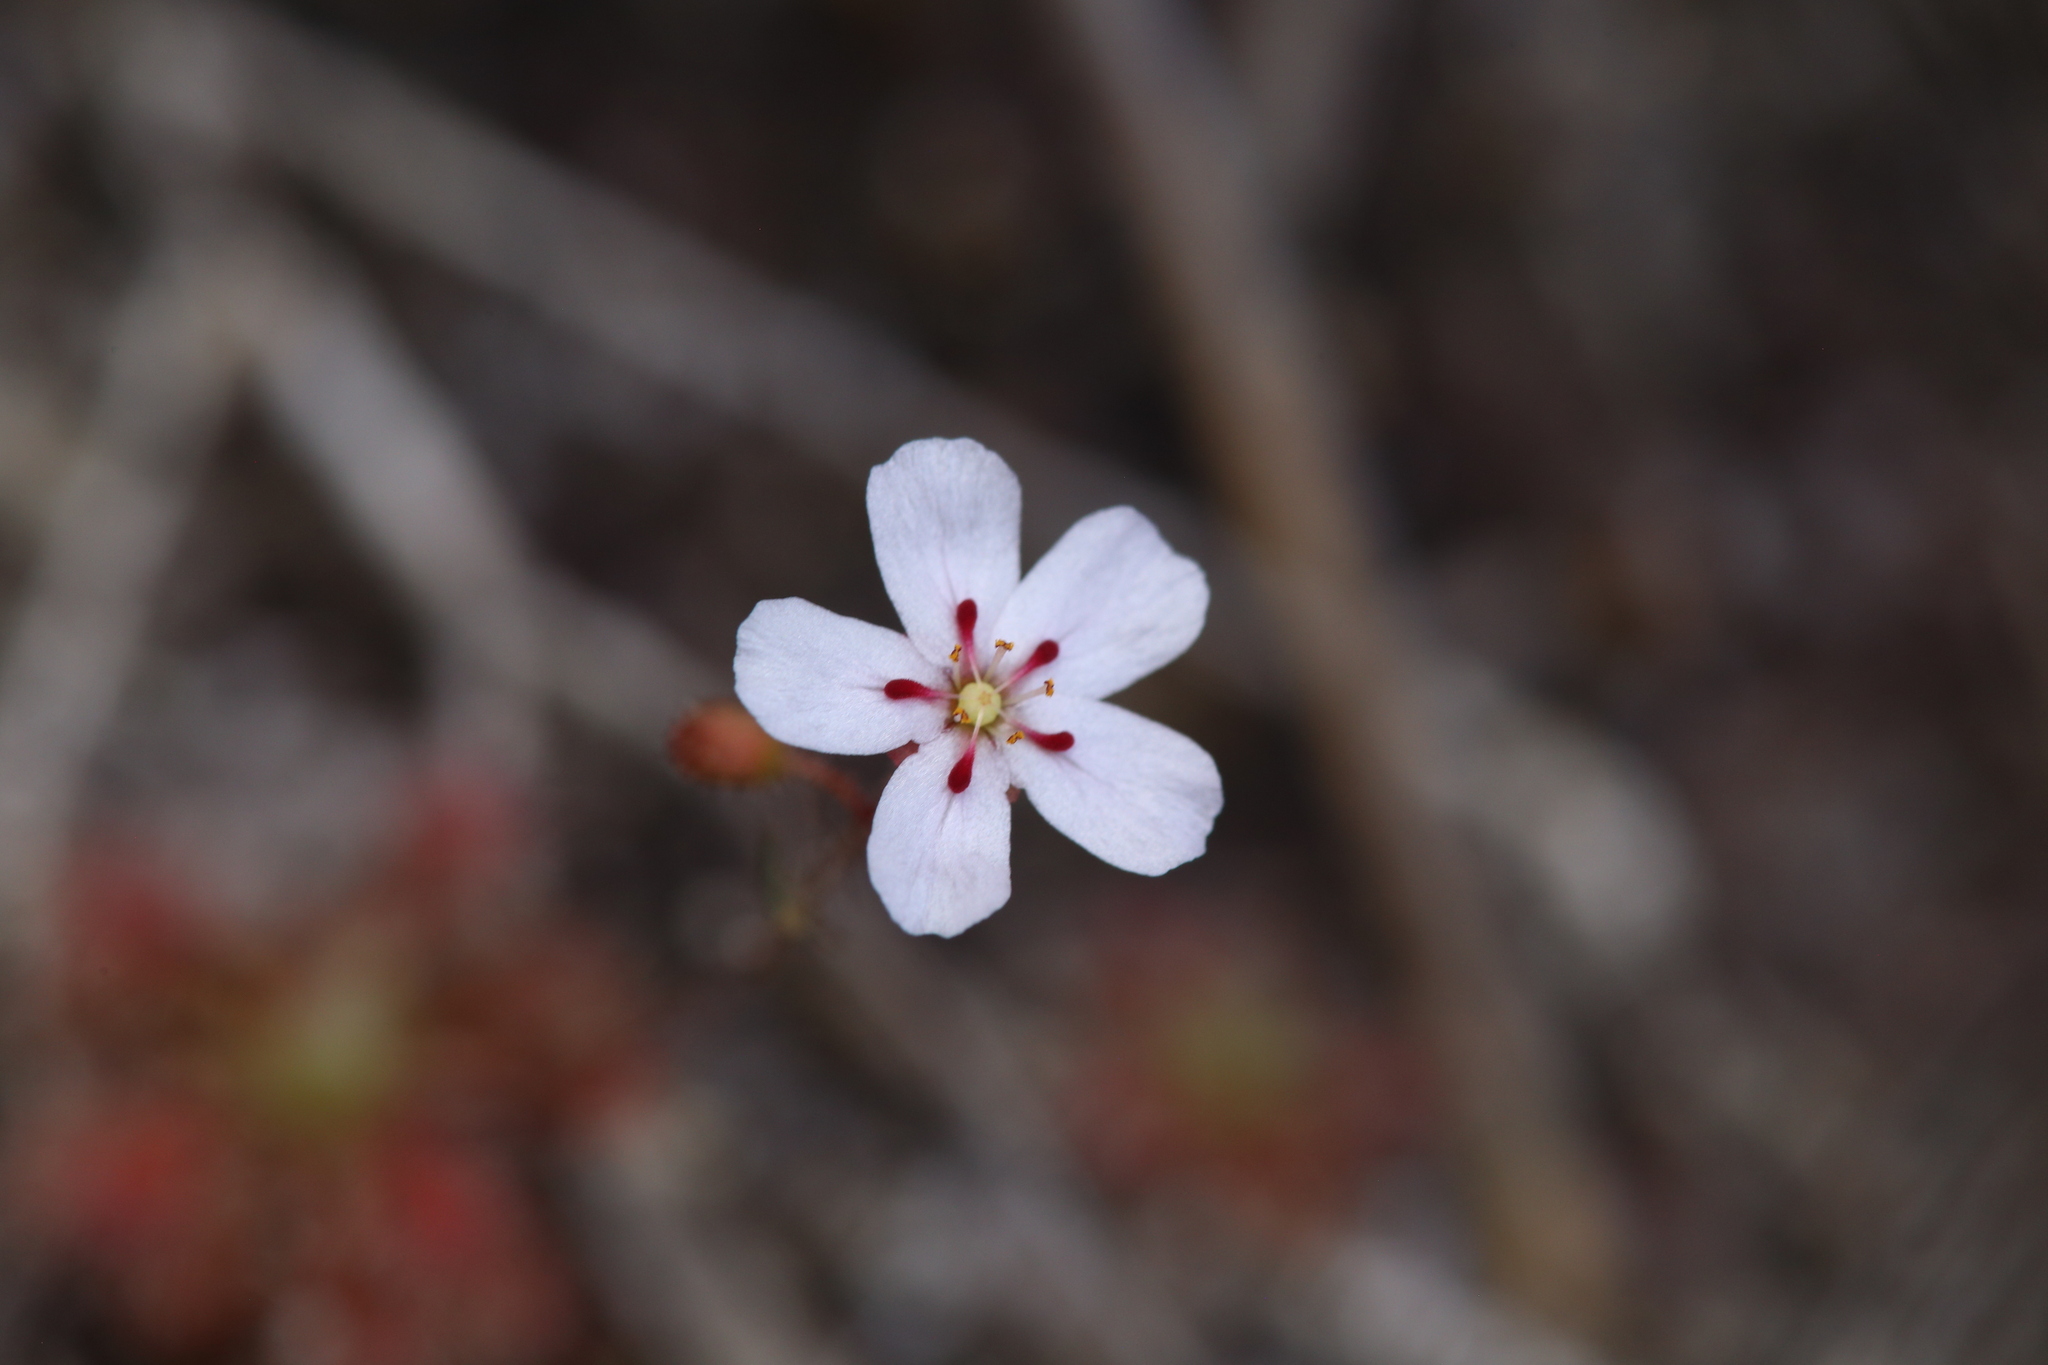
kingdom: Plantae
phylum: Tracheophyta
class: Magnoliopsida
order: Caryophyllales
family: Droseraceae
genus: Drosera
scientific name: Drosera sidjamesii
